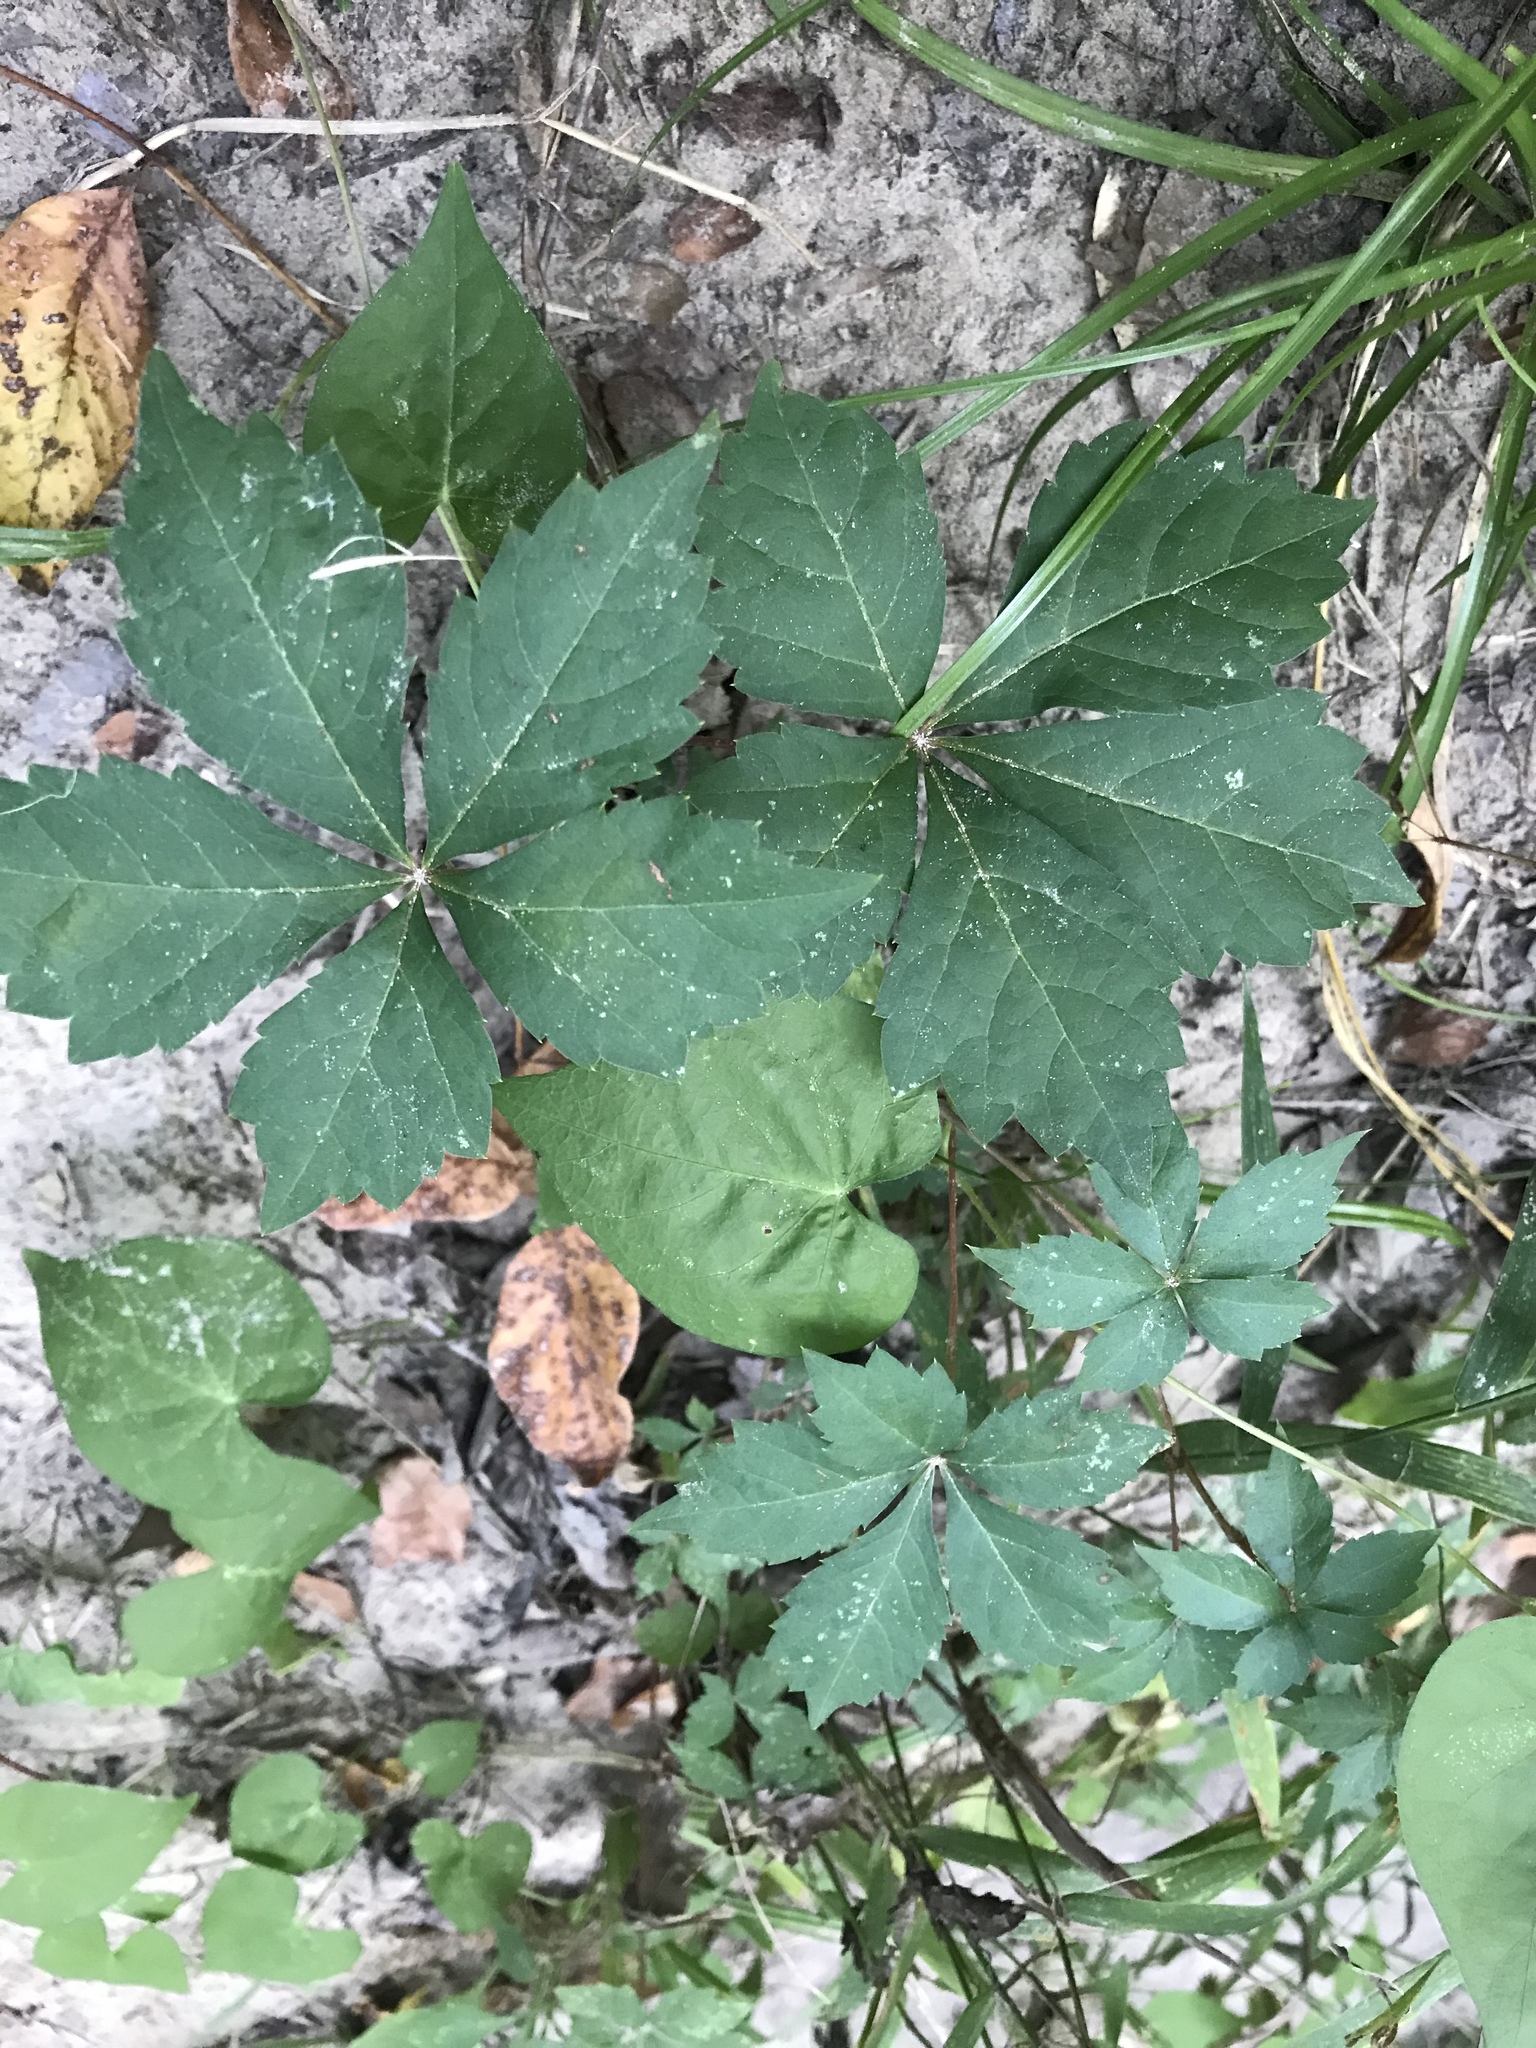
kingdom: Plantae
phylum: Tracheophyta
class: Magnoliopsida
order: Vitales
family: Vitaceae
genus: Parthenocissus
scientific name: Parthenocissus quinquefolia
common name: Virginia-creeper
